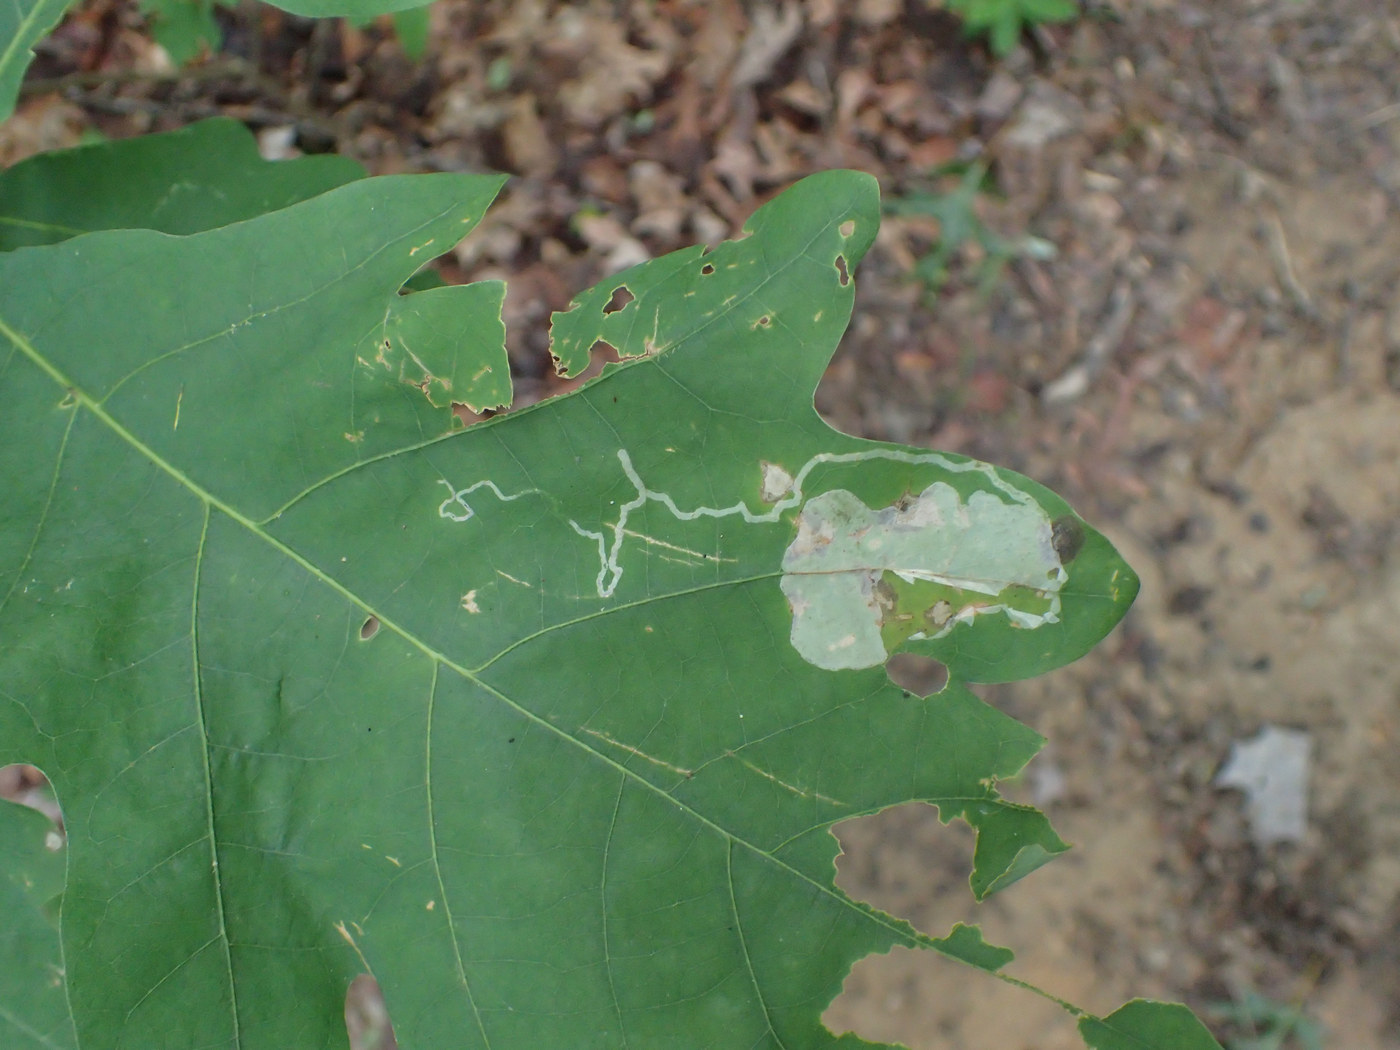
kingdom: Animalia
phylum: Arthropoda
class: Insecta
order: Lepidoptera
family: Gracillariidae
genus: Cryptolectica
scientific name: Cryptolectica
